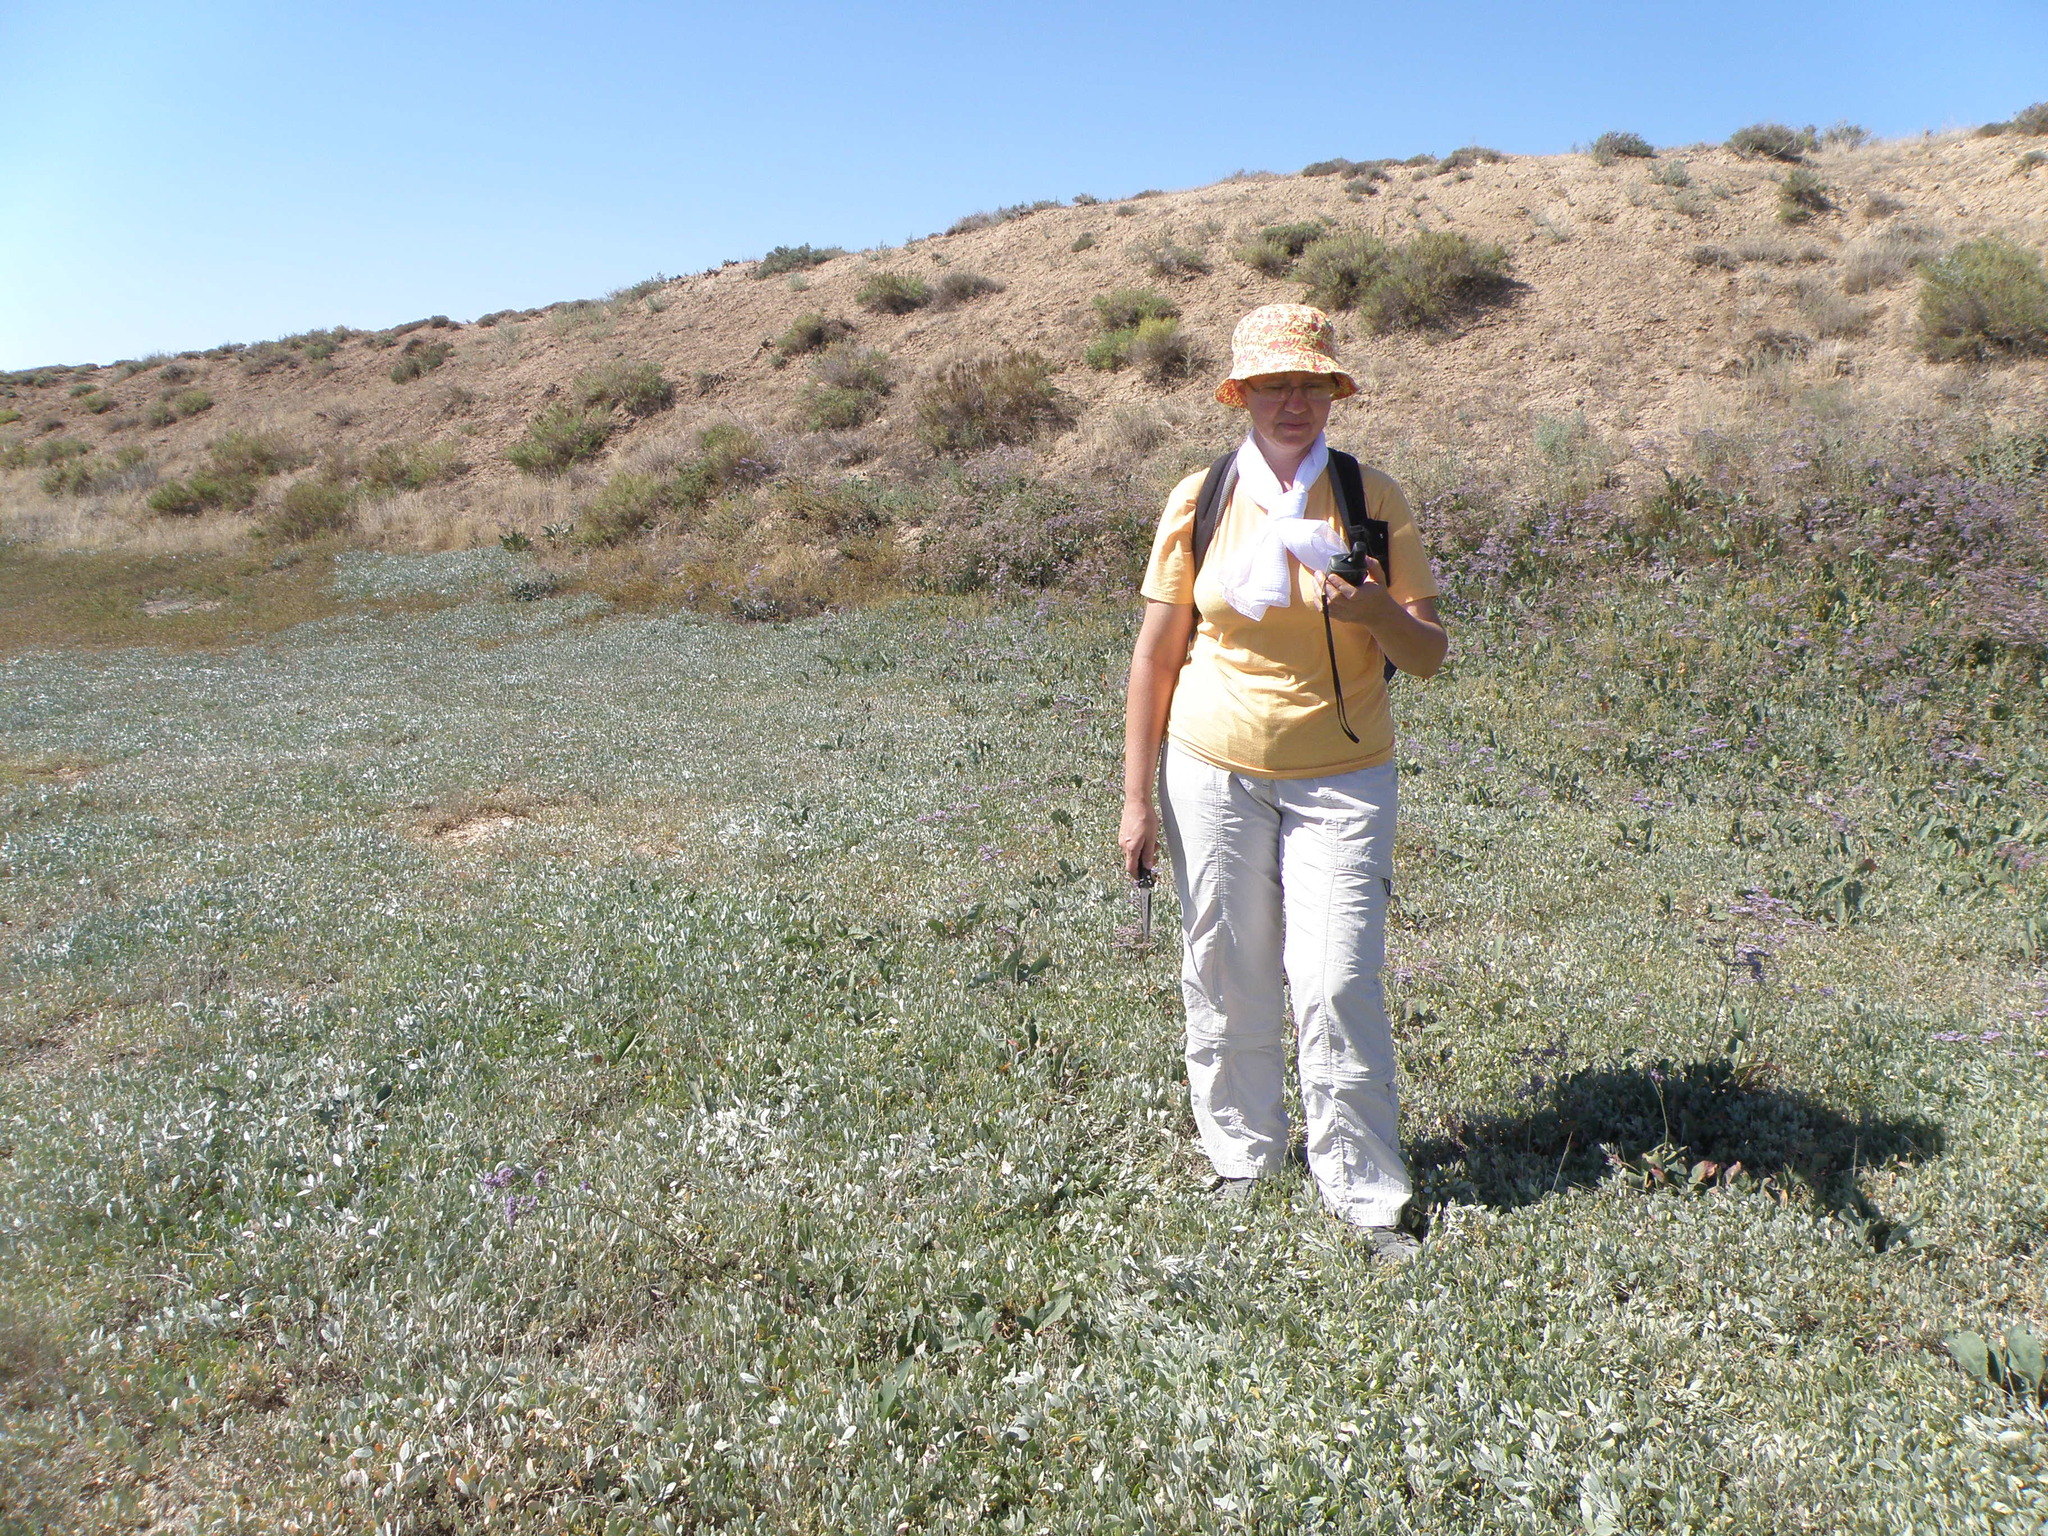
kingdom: Plantae
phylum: Tracheophyta
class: Magnoliopsida
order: Caryophyllales
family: Amaranthaceae
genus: Halimione
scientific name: Halimione verrucifera
